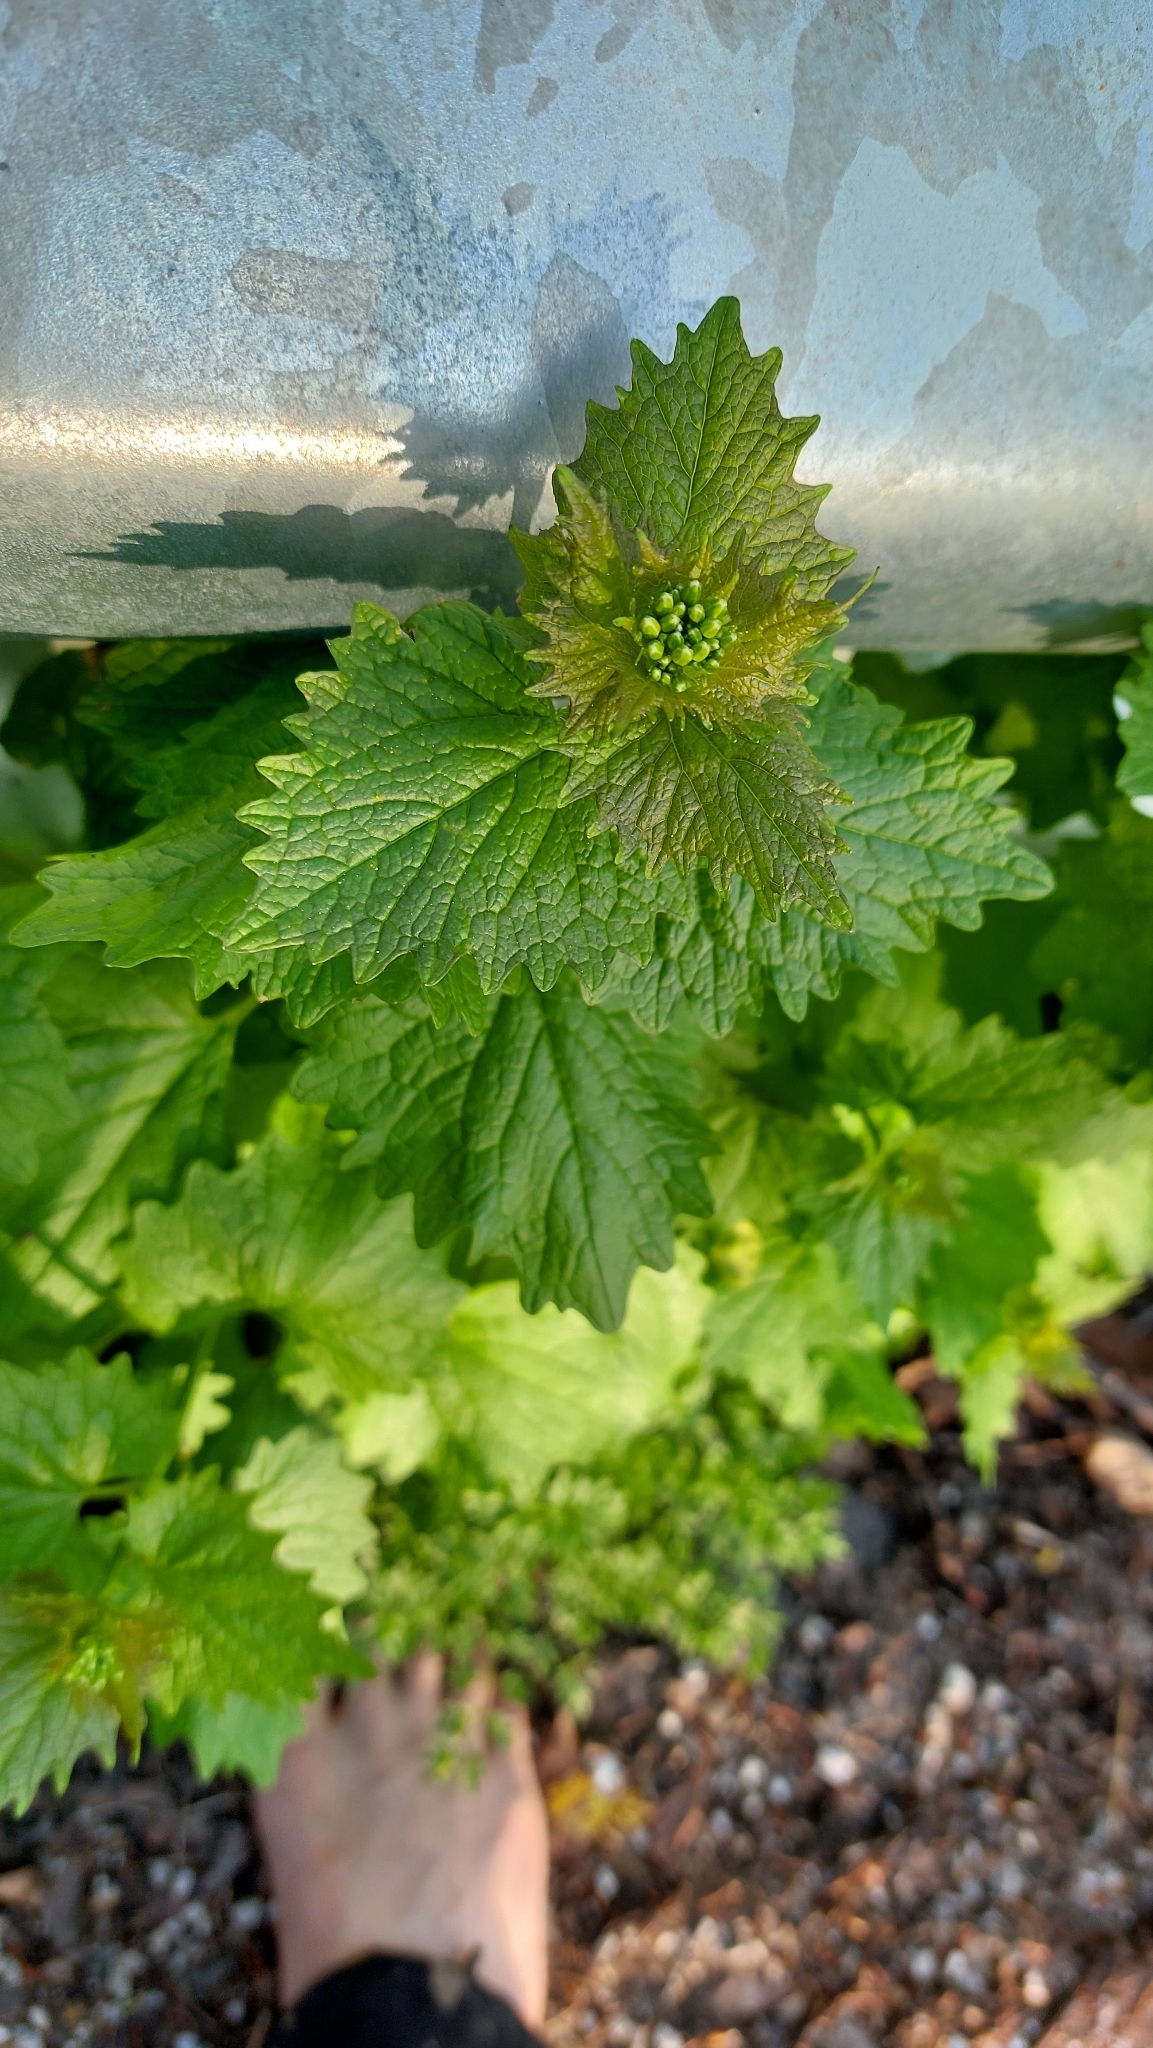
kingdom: Plantae
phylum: Tracheophyta
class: Magnoliopsida
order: Brassicales
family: Brassicaceae
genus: Alliaria
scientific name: Alliaria petiolata
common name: Garlic mustard
